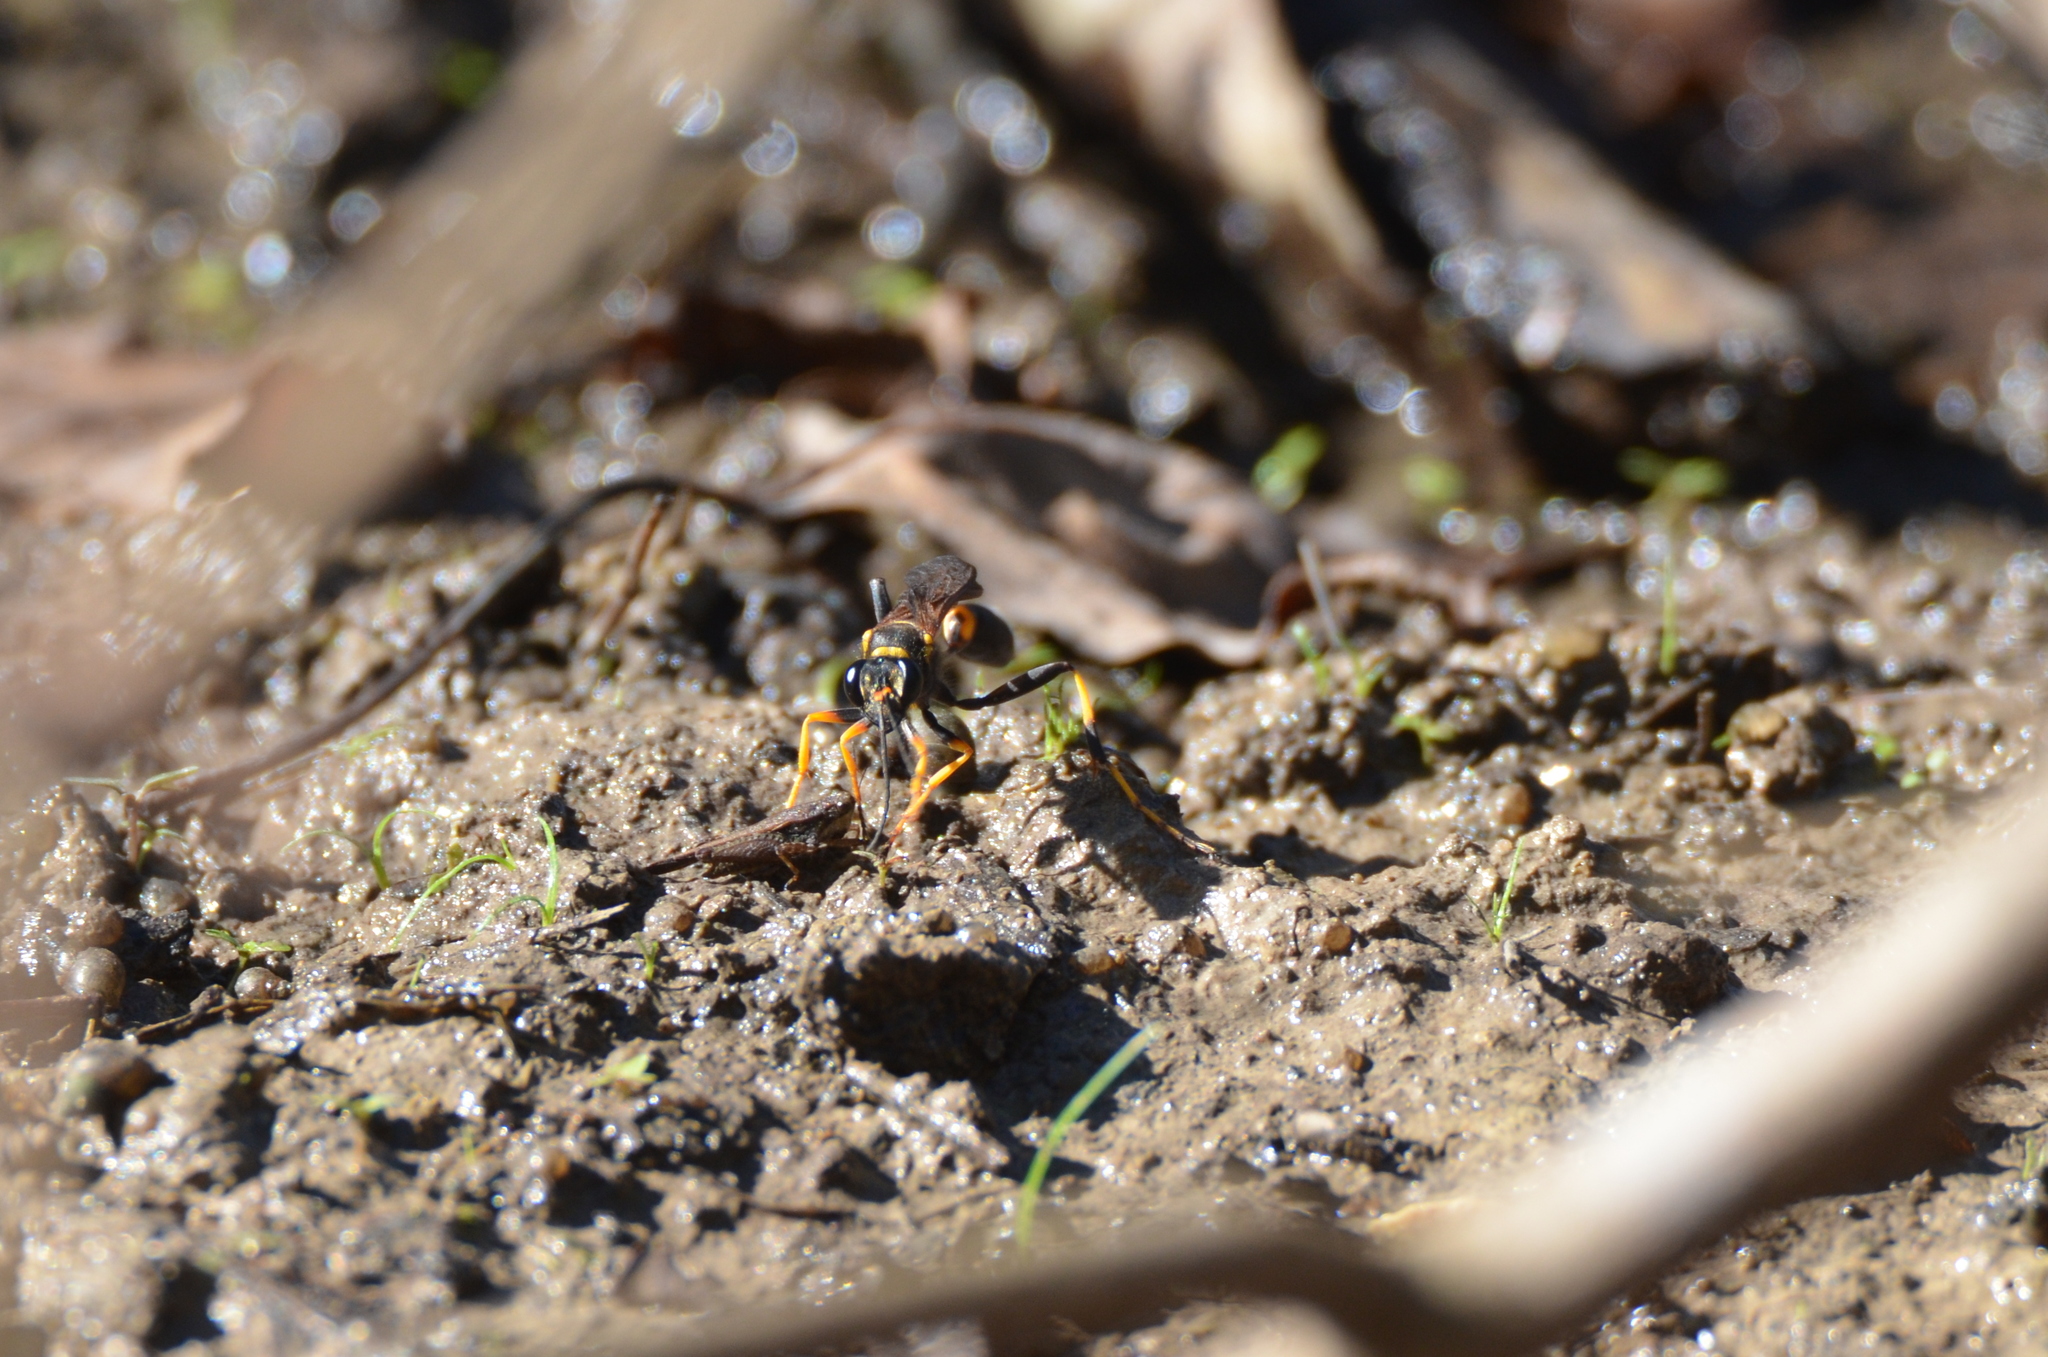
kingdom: Animalia
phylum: Arthropoda
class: Insecta
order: Hymenoptera
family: Sphecidae
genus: Sceliphron
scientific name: Sceliphron caementarium
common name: Mud dauber
